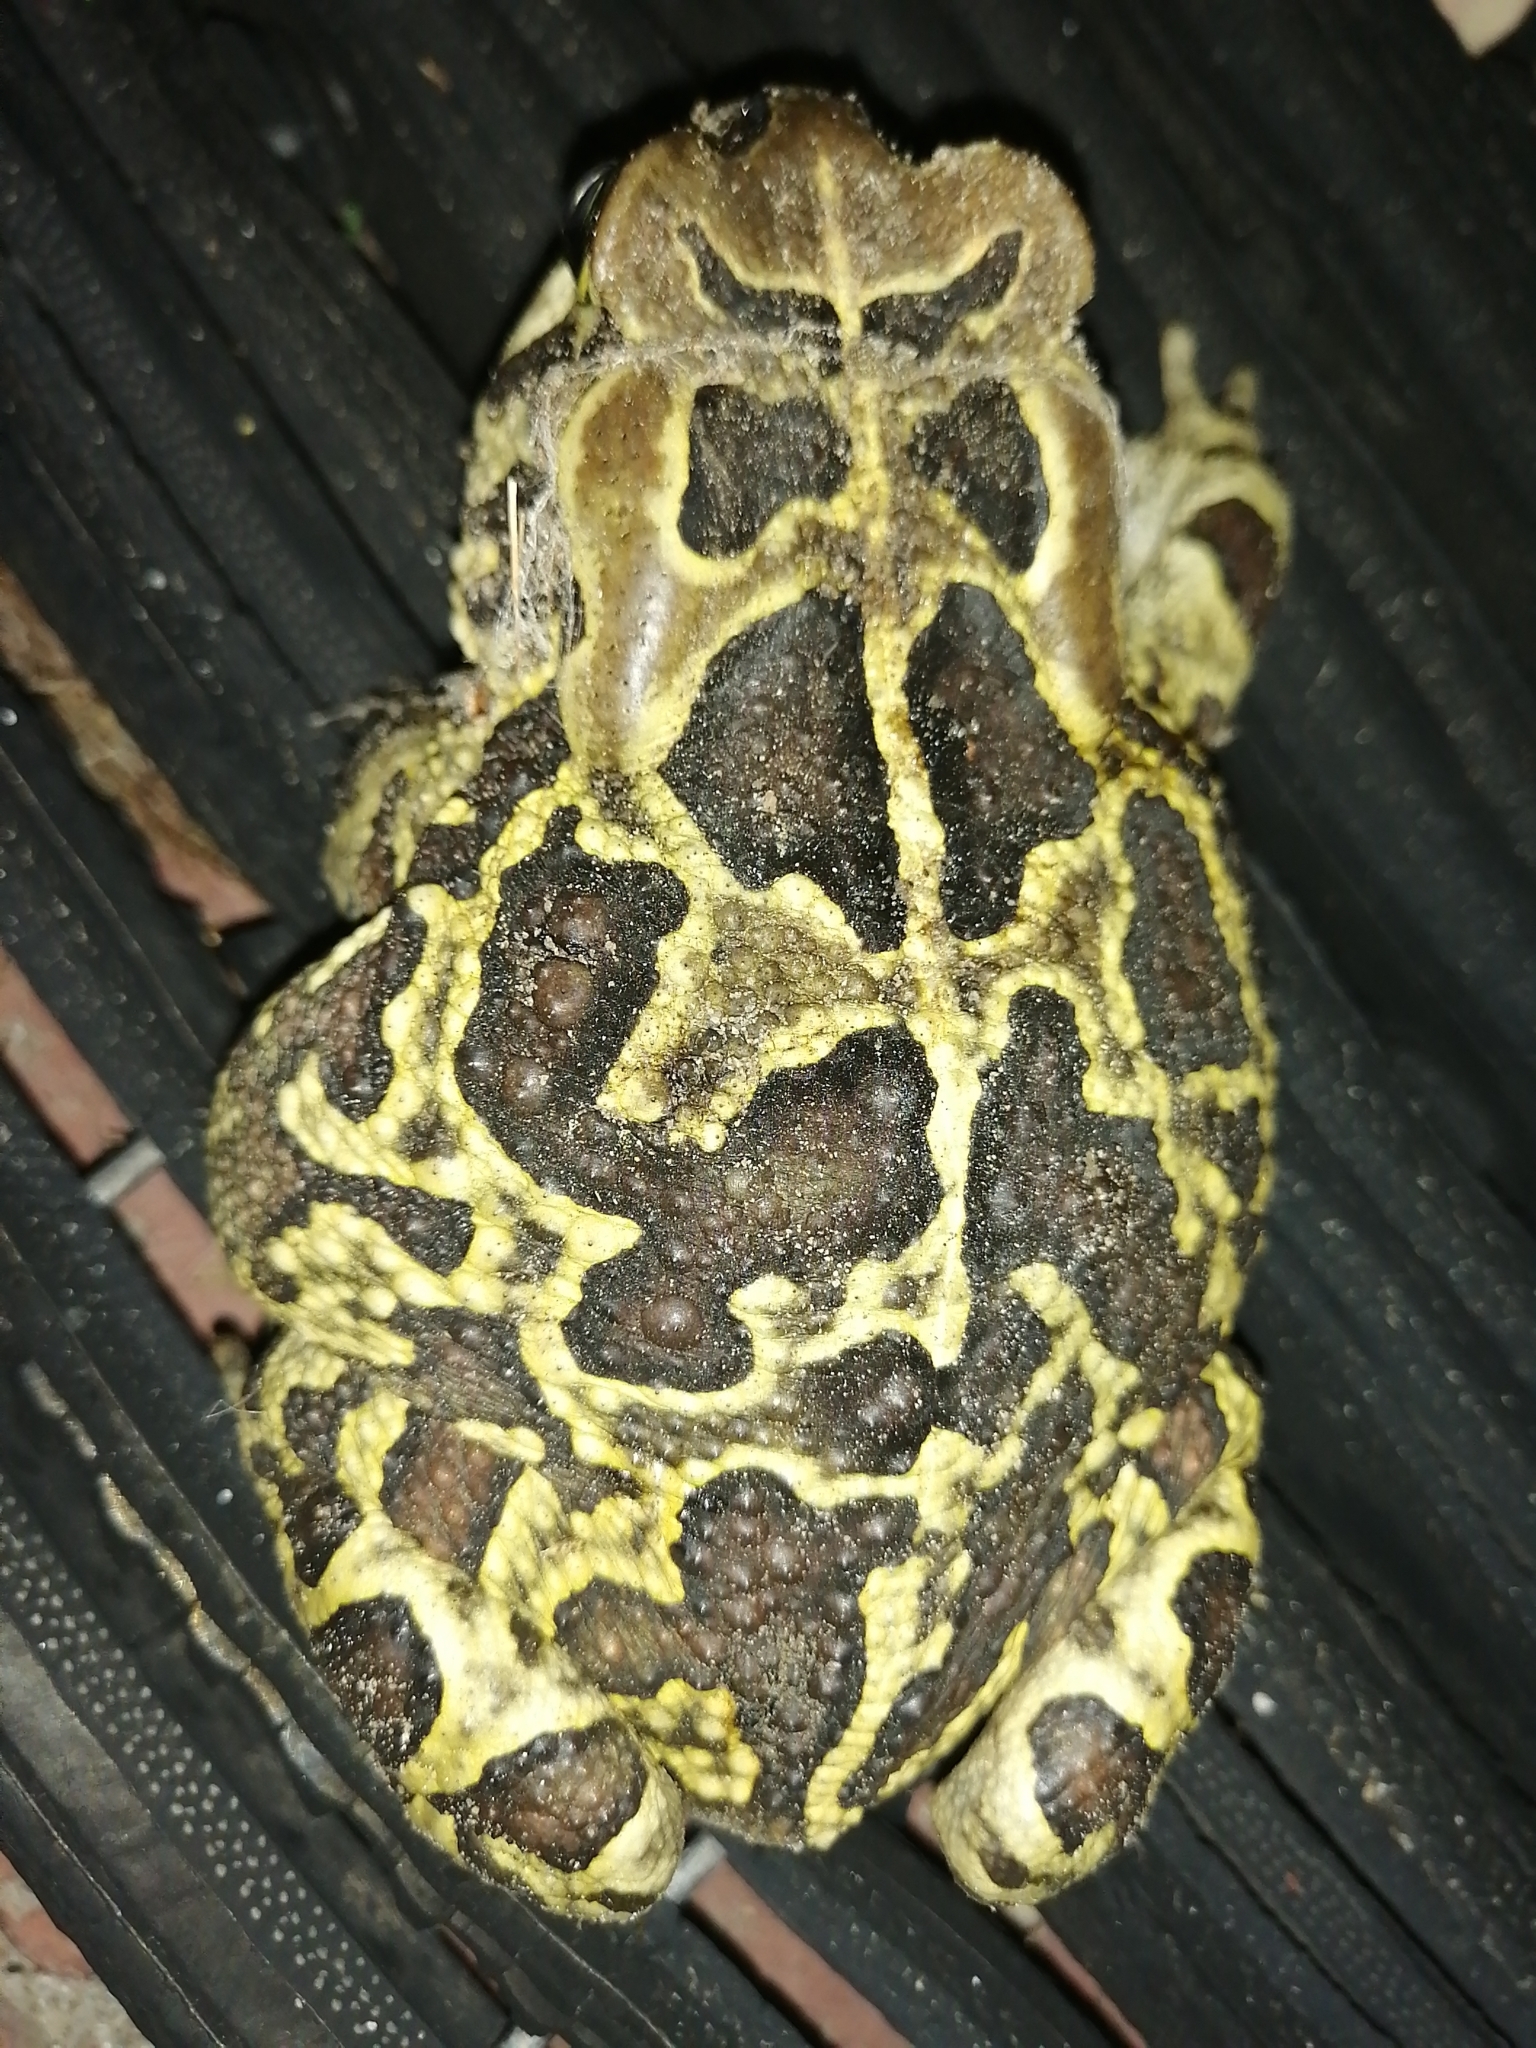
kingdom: Animalia
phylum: Chordata
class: Amphibia
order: Anura
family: Bufonidae
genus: Sclerophrys
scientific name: Sclerophrys pantherina
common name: Panther toad
